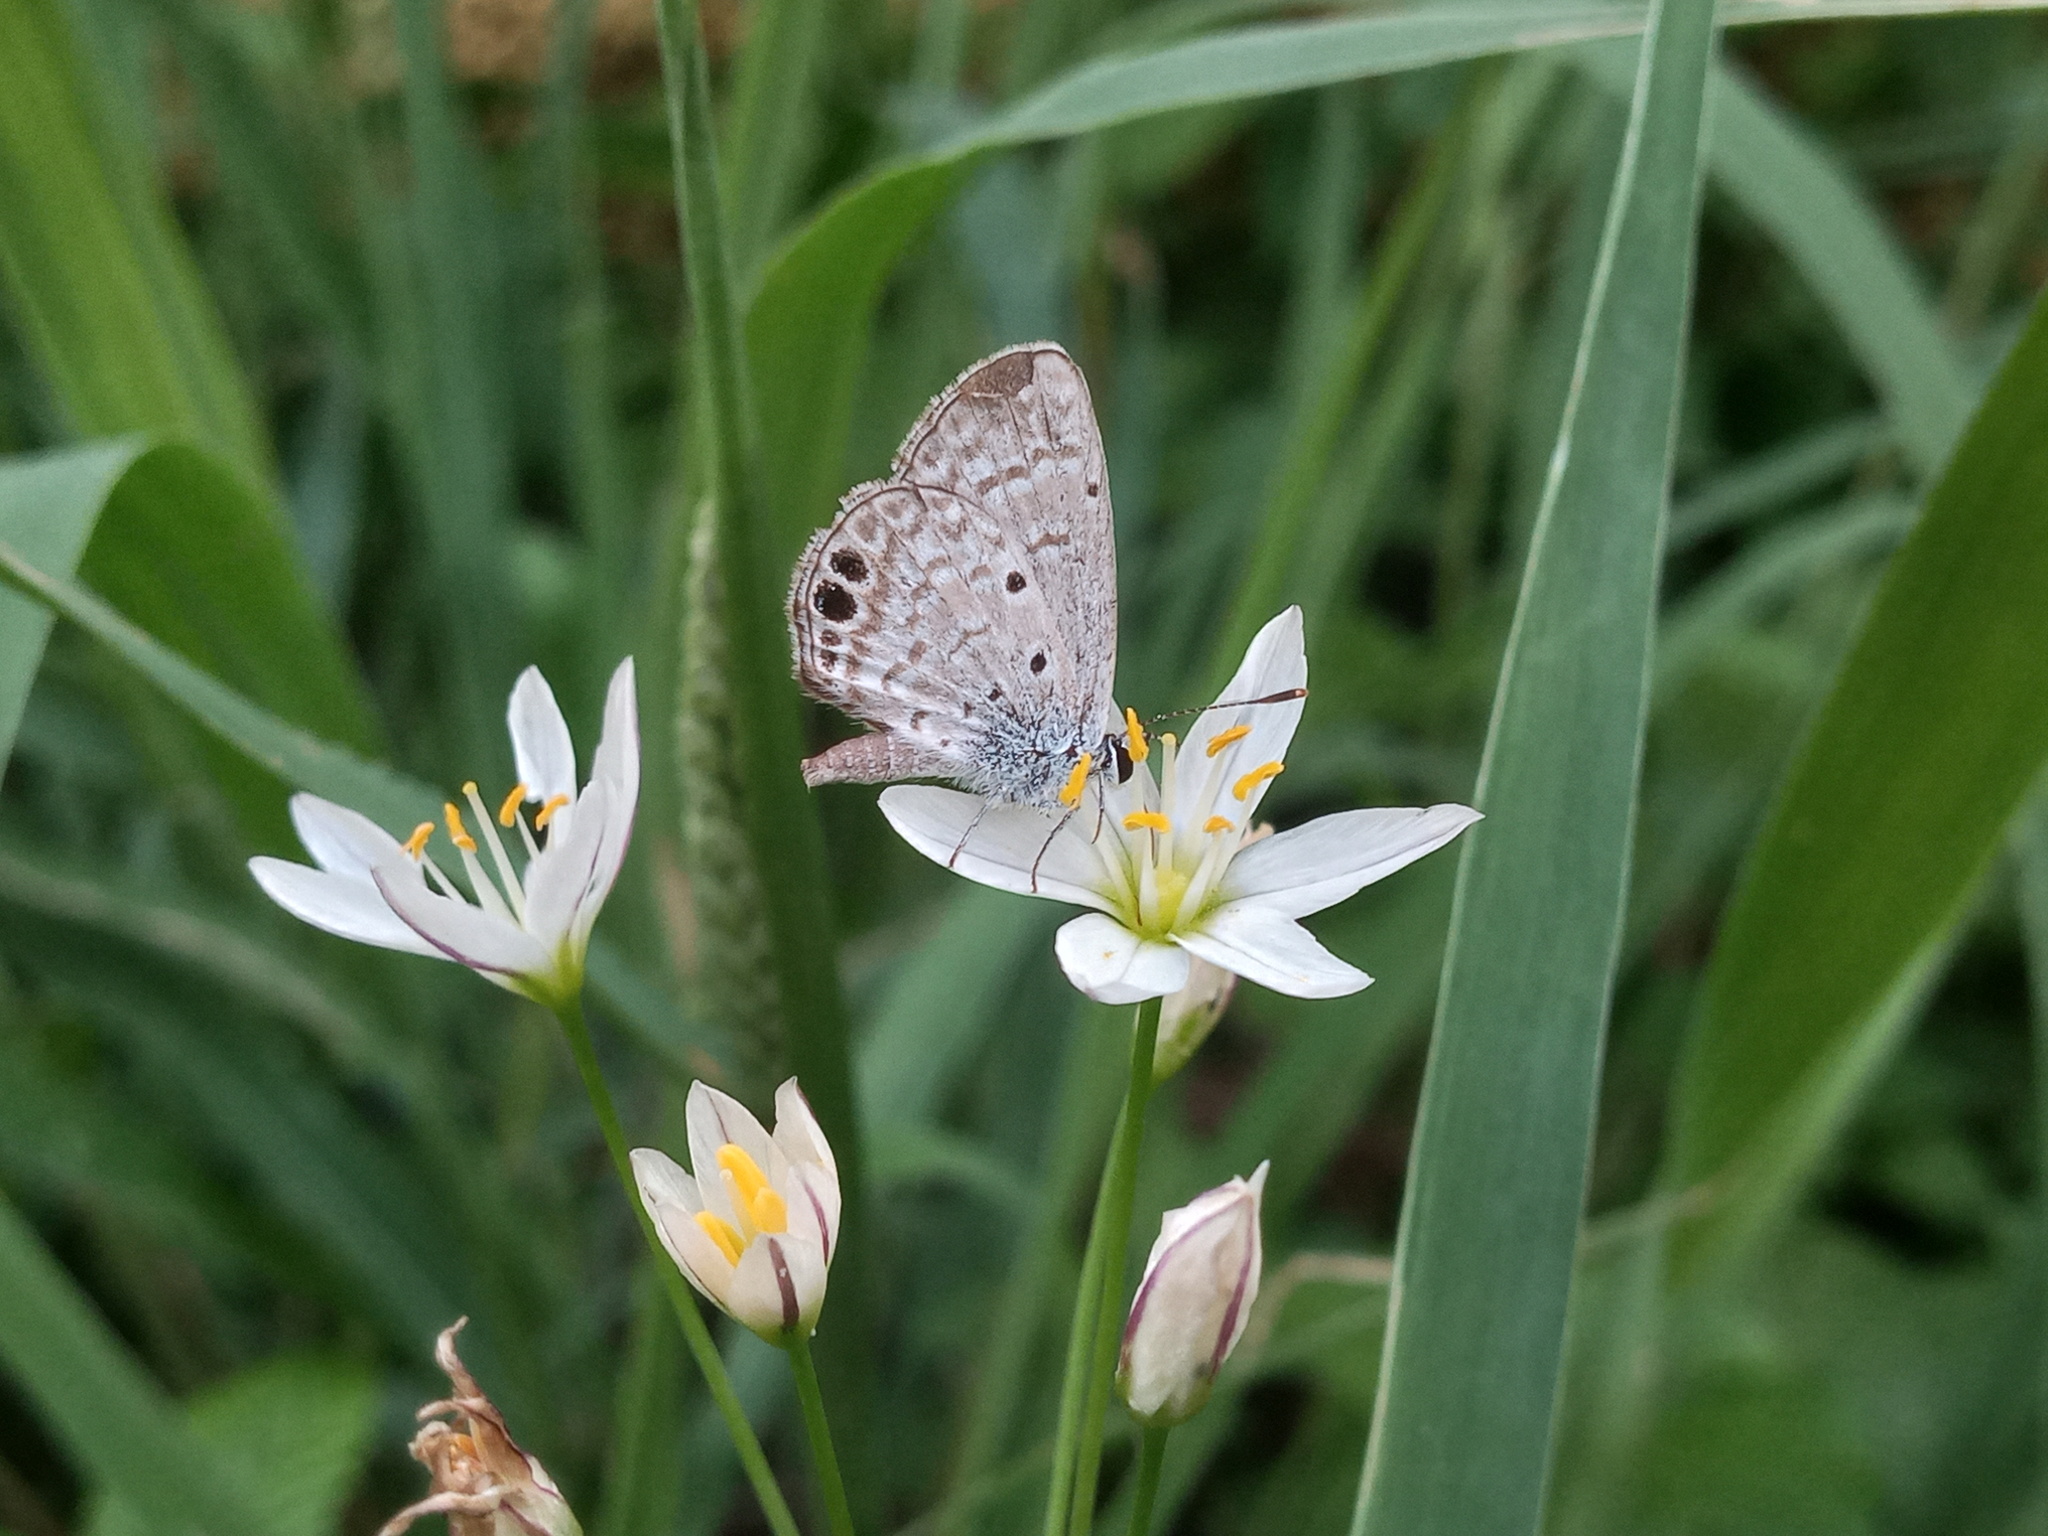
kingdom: Animalia
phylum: Arthropoda
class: Insecta
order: Lepidoptera
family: Lycaenidae
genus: Hemiargus
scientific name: Hemiargus ceraunus
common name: Ceraunus blue
